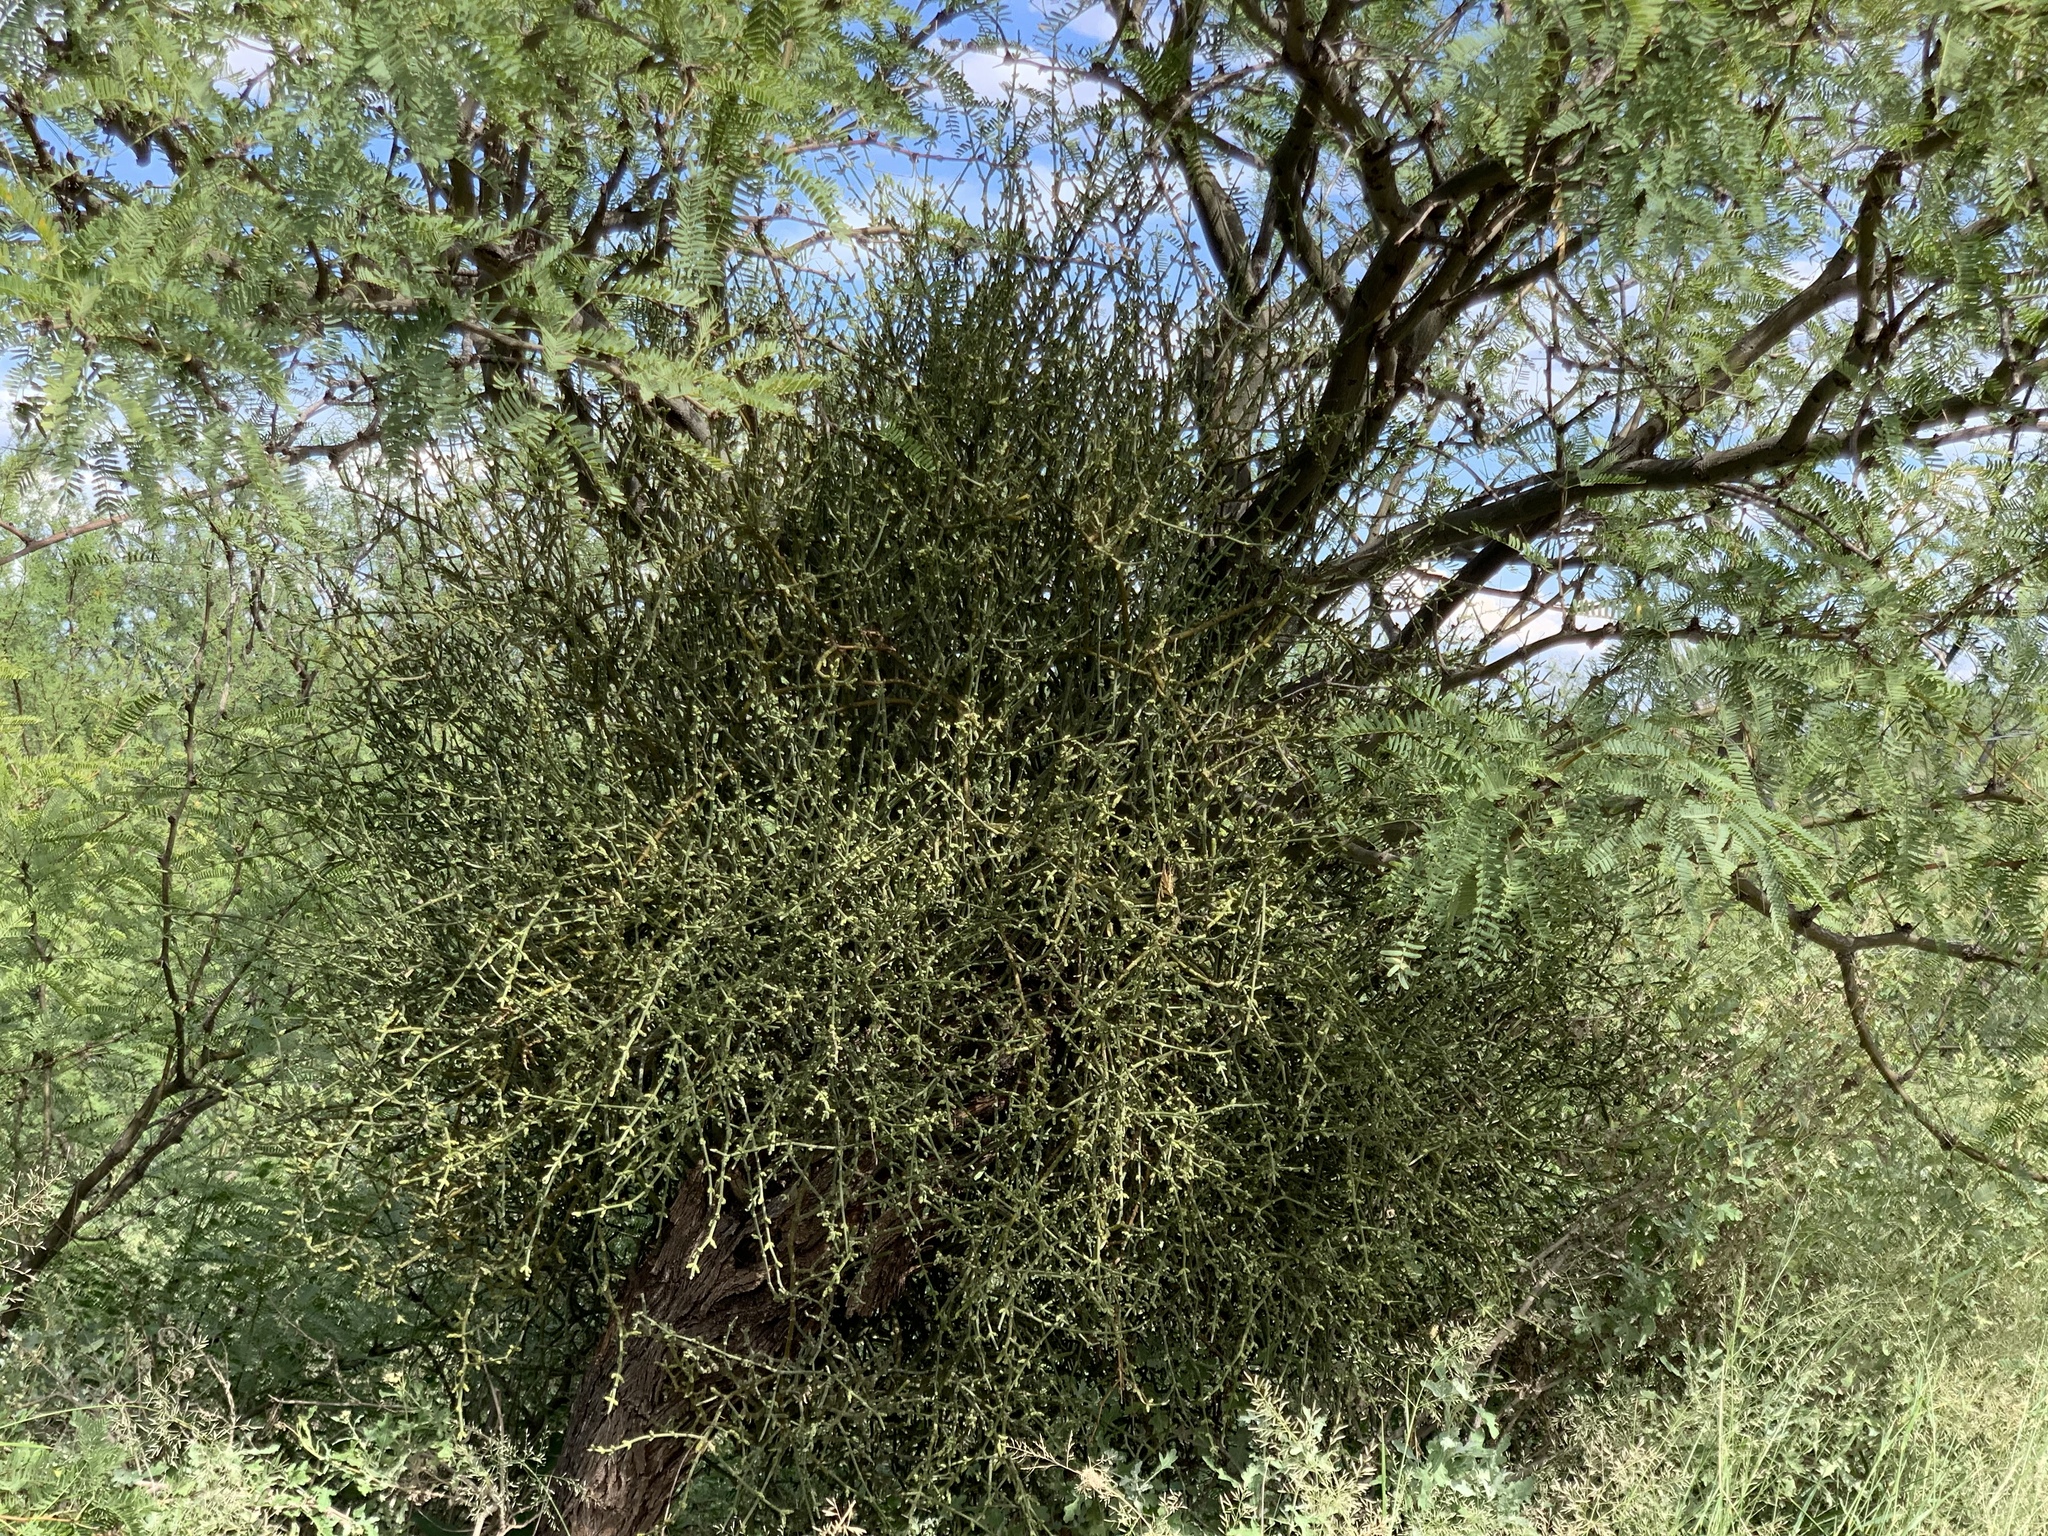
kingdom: Plantae
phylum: Tracheophyta
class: Magnoliopsida
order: Santalales
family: Viscaceae
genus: Phoradendron
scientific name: Phoradendron californicum
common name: Acacia mistletoe
